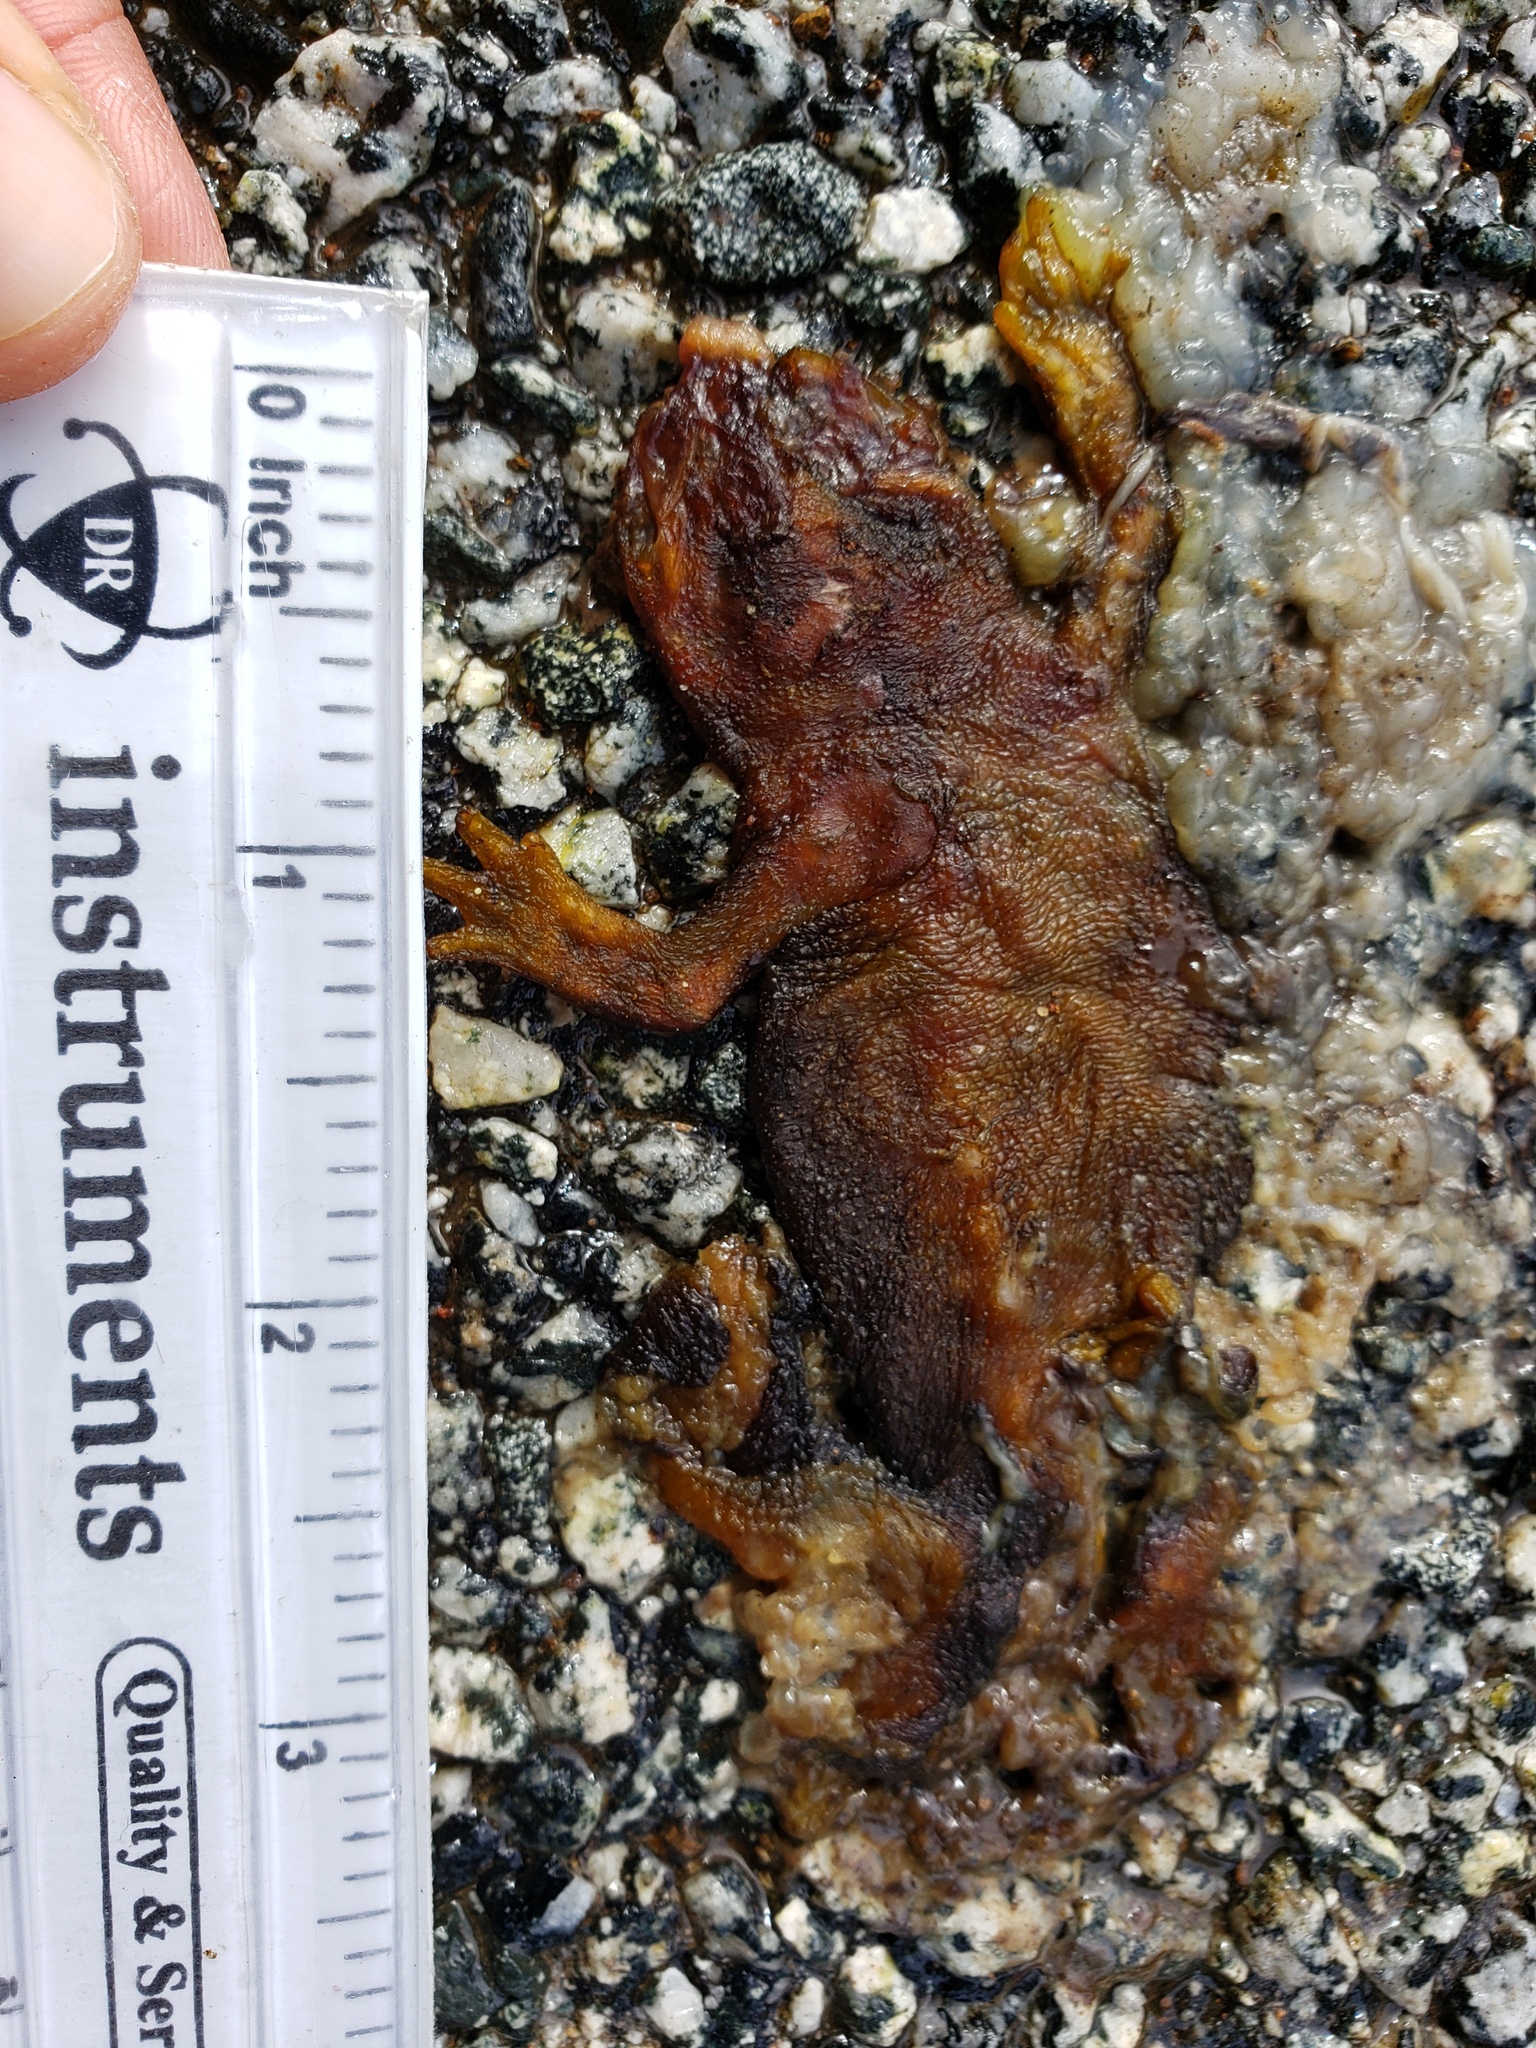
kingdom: Animalia
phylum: Chordata
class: Amphibia
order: Caudata
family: Salamandridae
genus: Taricha
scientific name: Taricha
